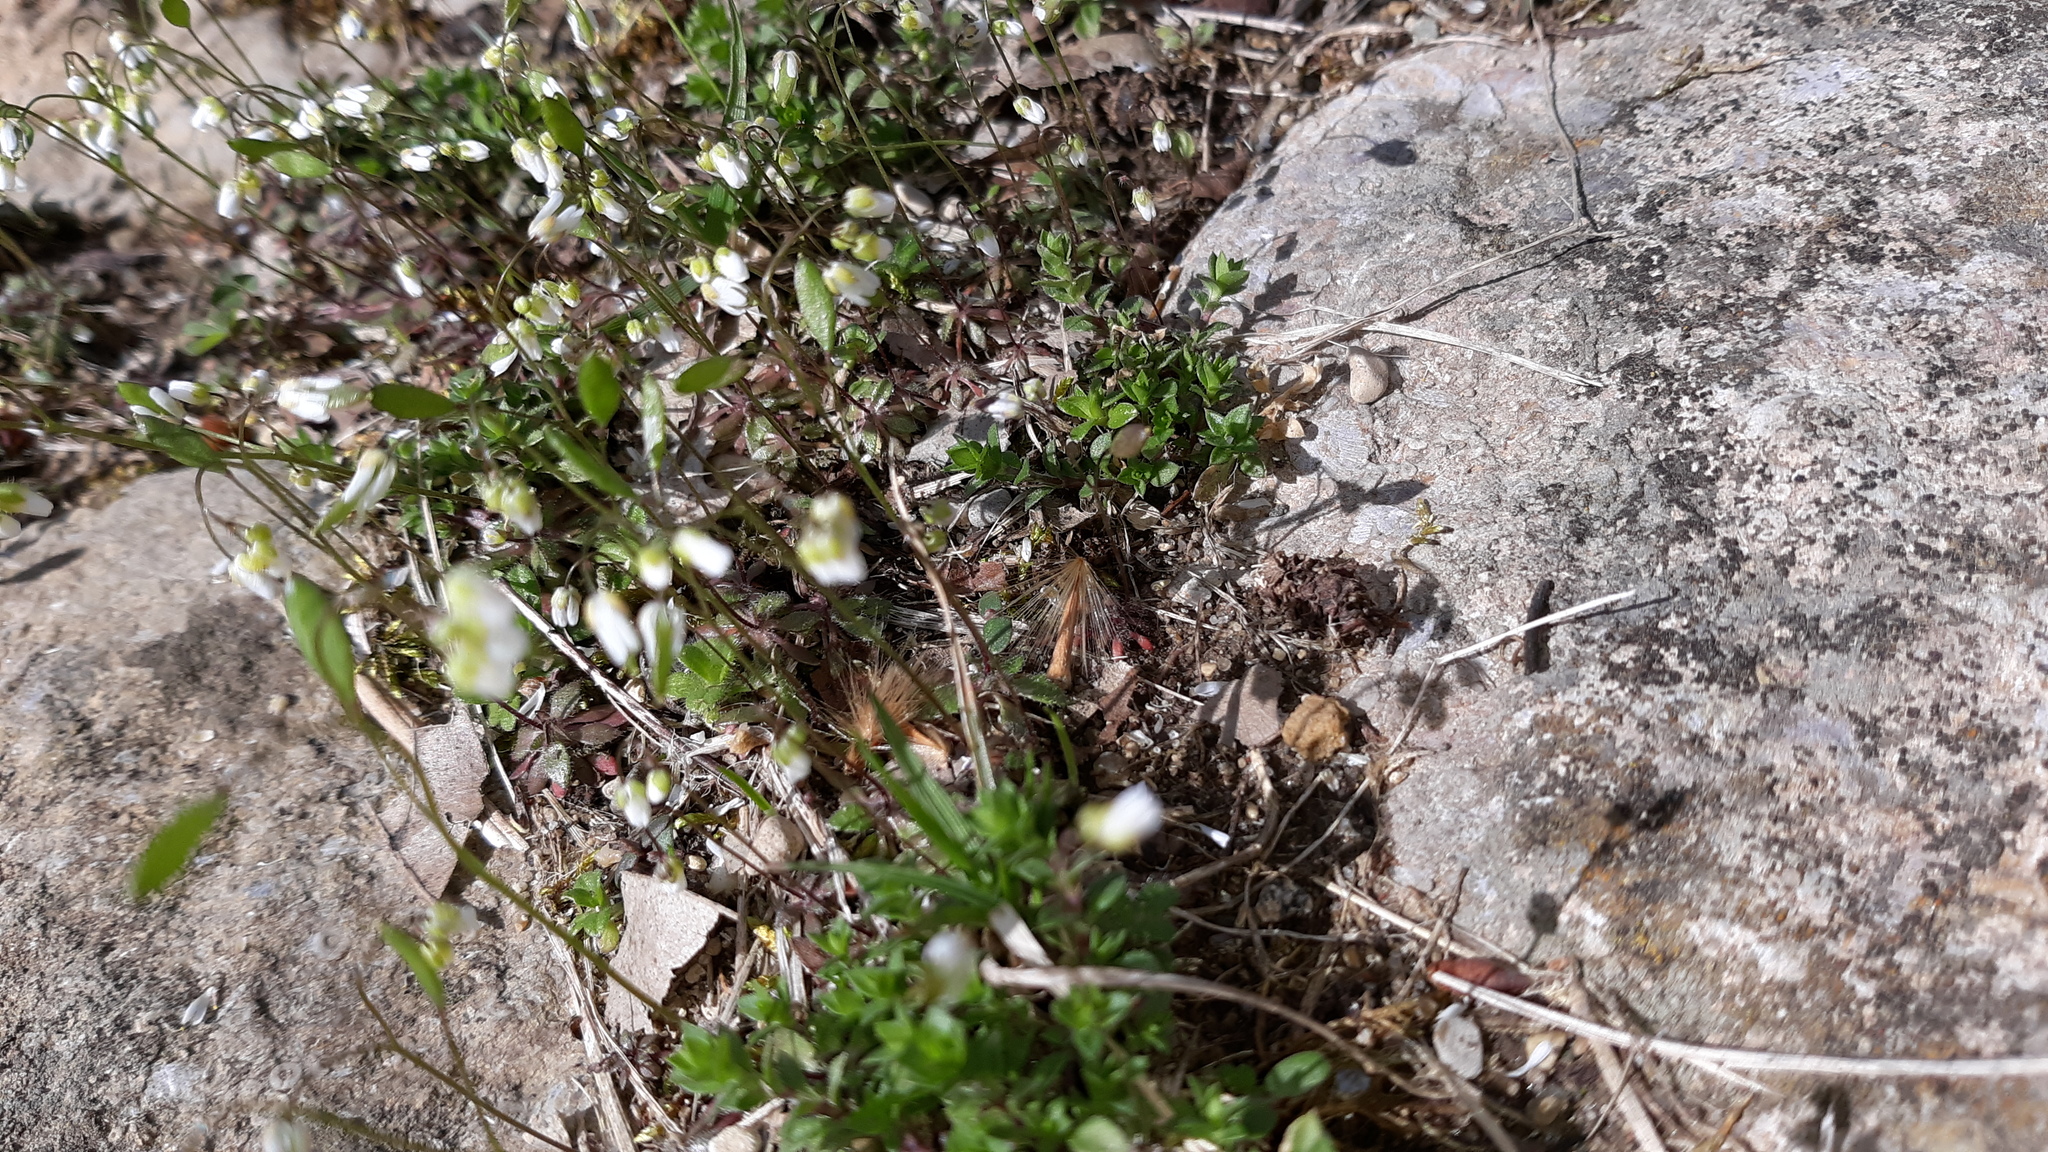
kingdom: Plantae
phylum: Tracheophyta
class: Magnoliopsida
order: Brassicales
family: Brassicaceae
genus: Draba
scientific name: Draba verna
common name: Spring draba
